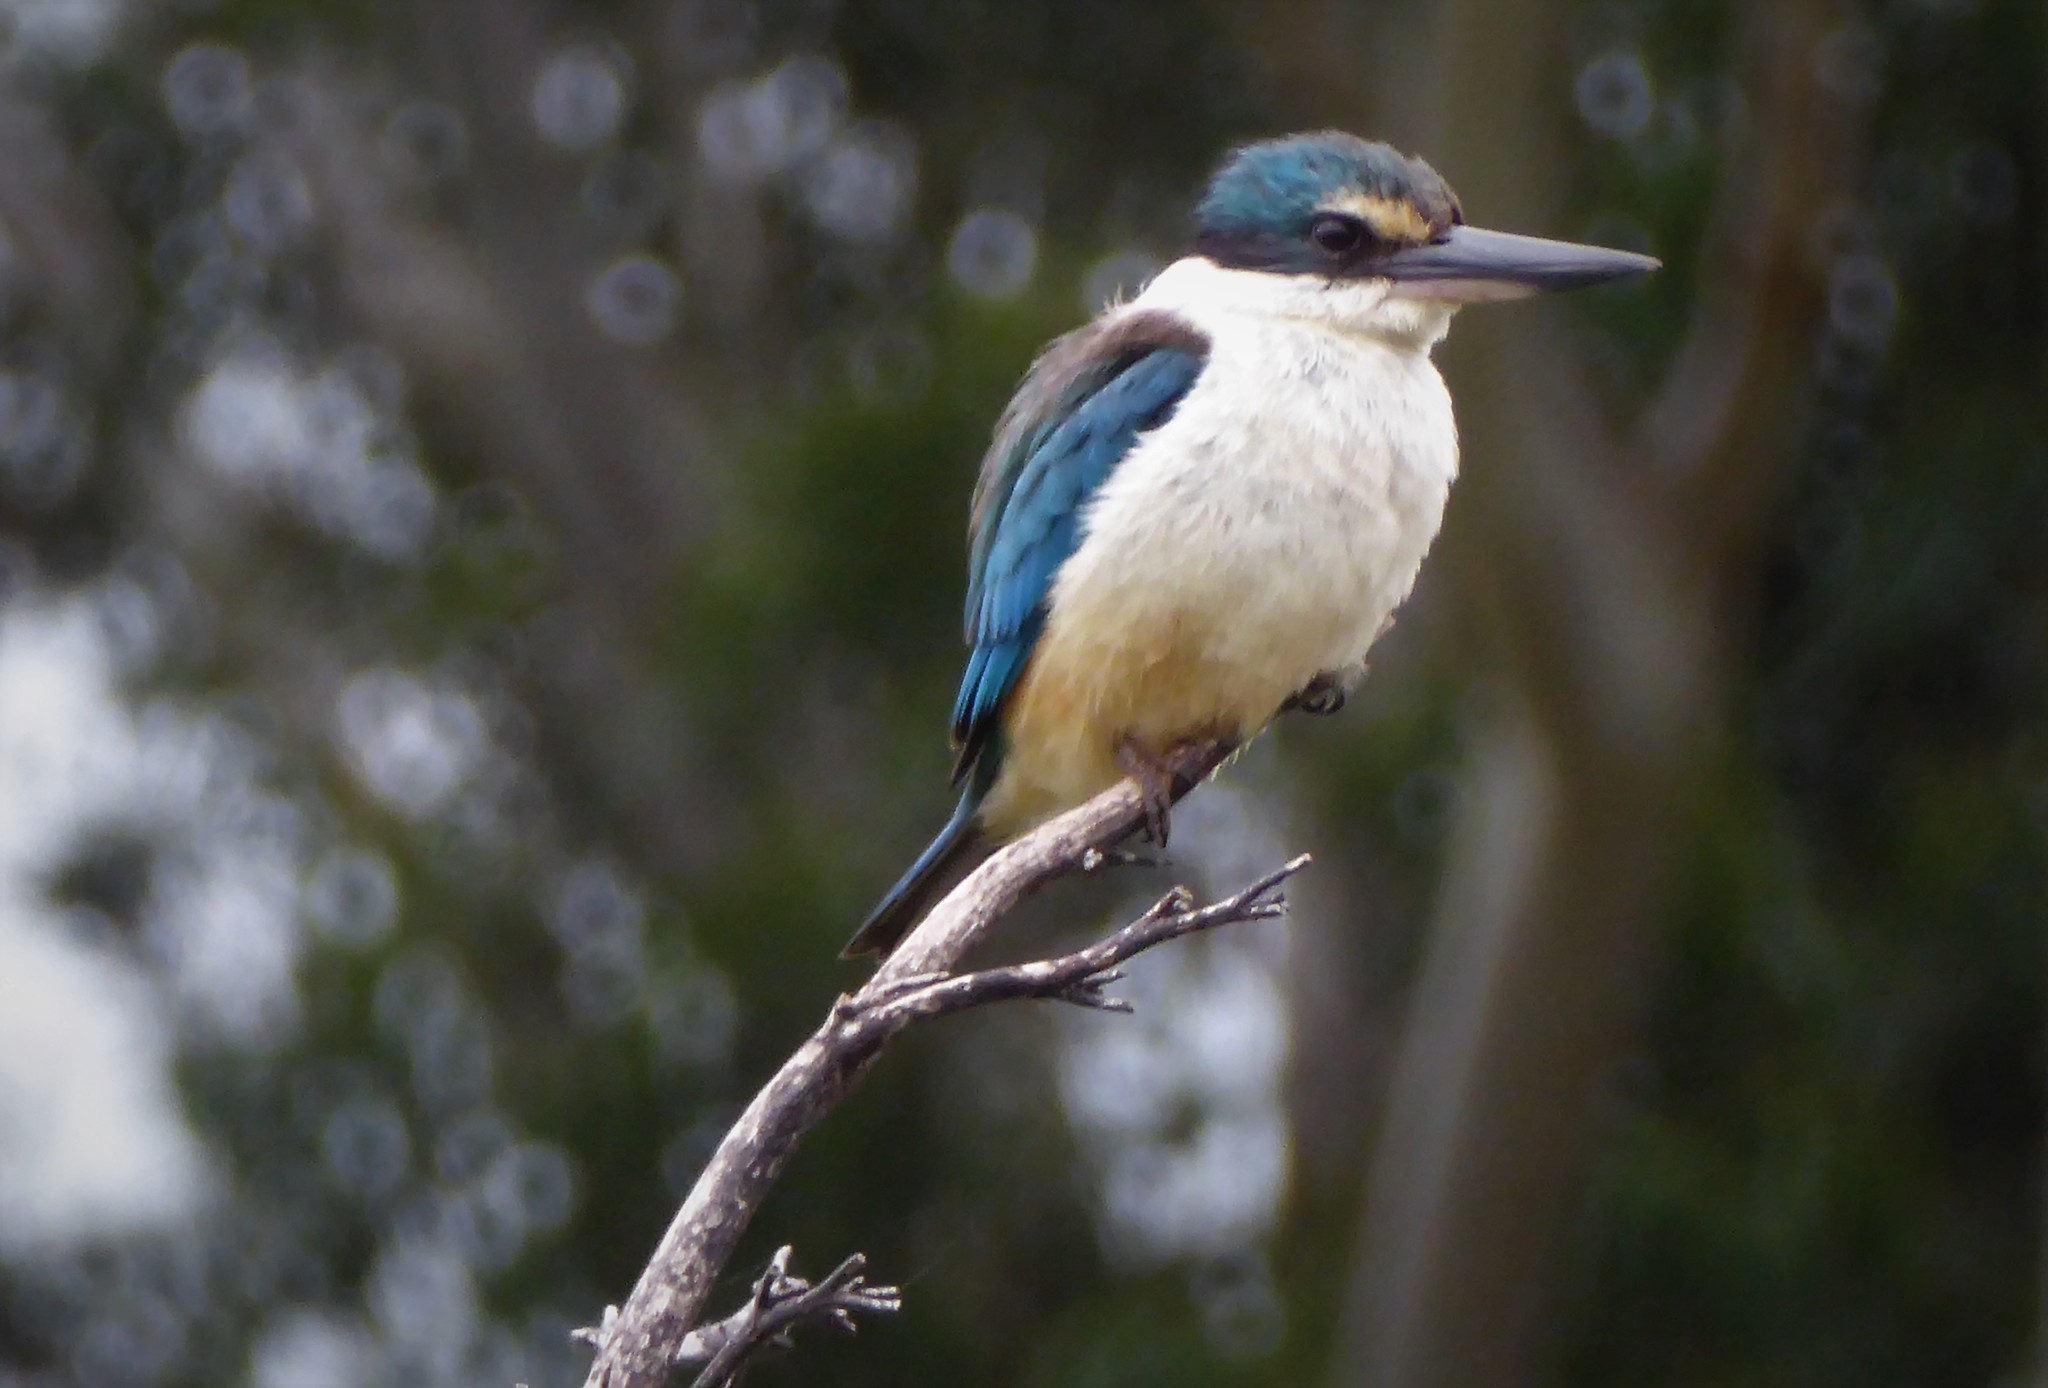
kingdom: Animalia
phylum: Chordata
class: Aves
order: Coraciiformes
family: Alcedinidae
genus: Todiramphus
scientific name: Todiramphus sanctus
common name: Sacred kingfisher
